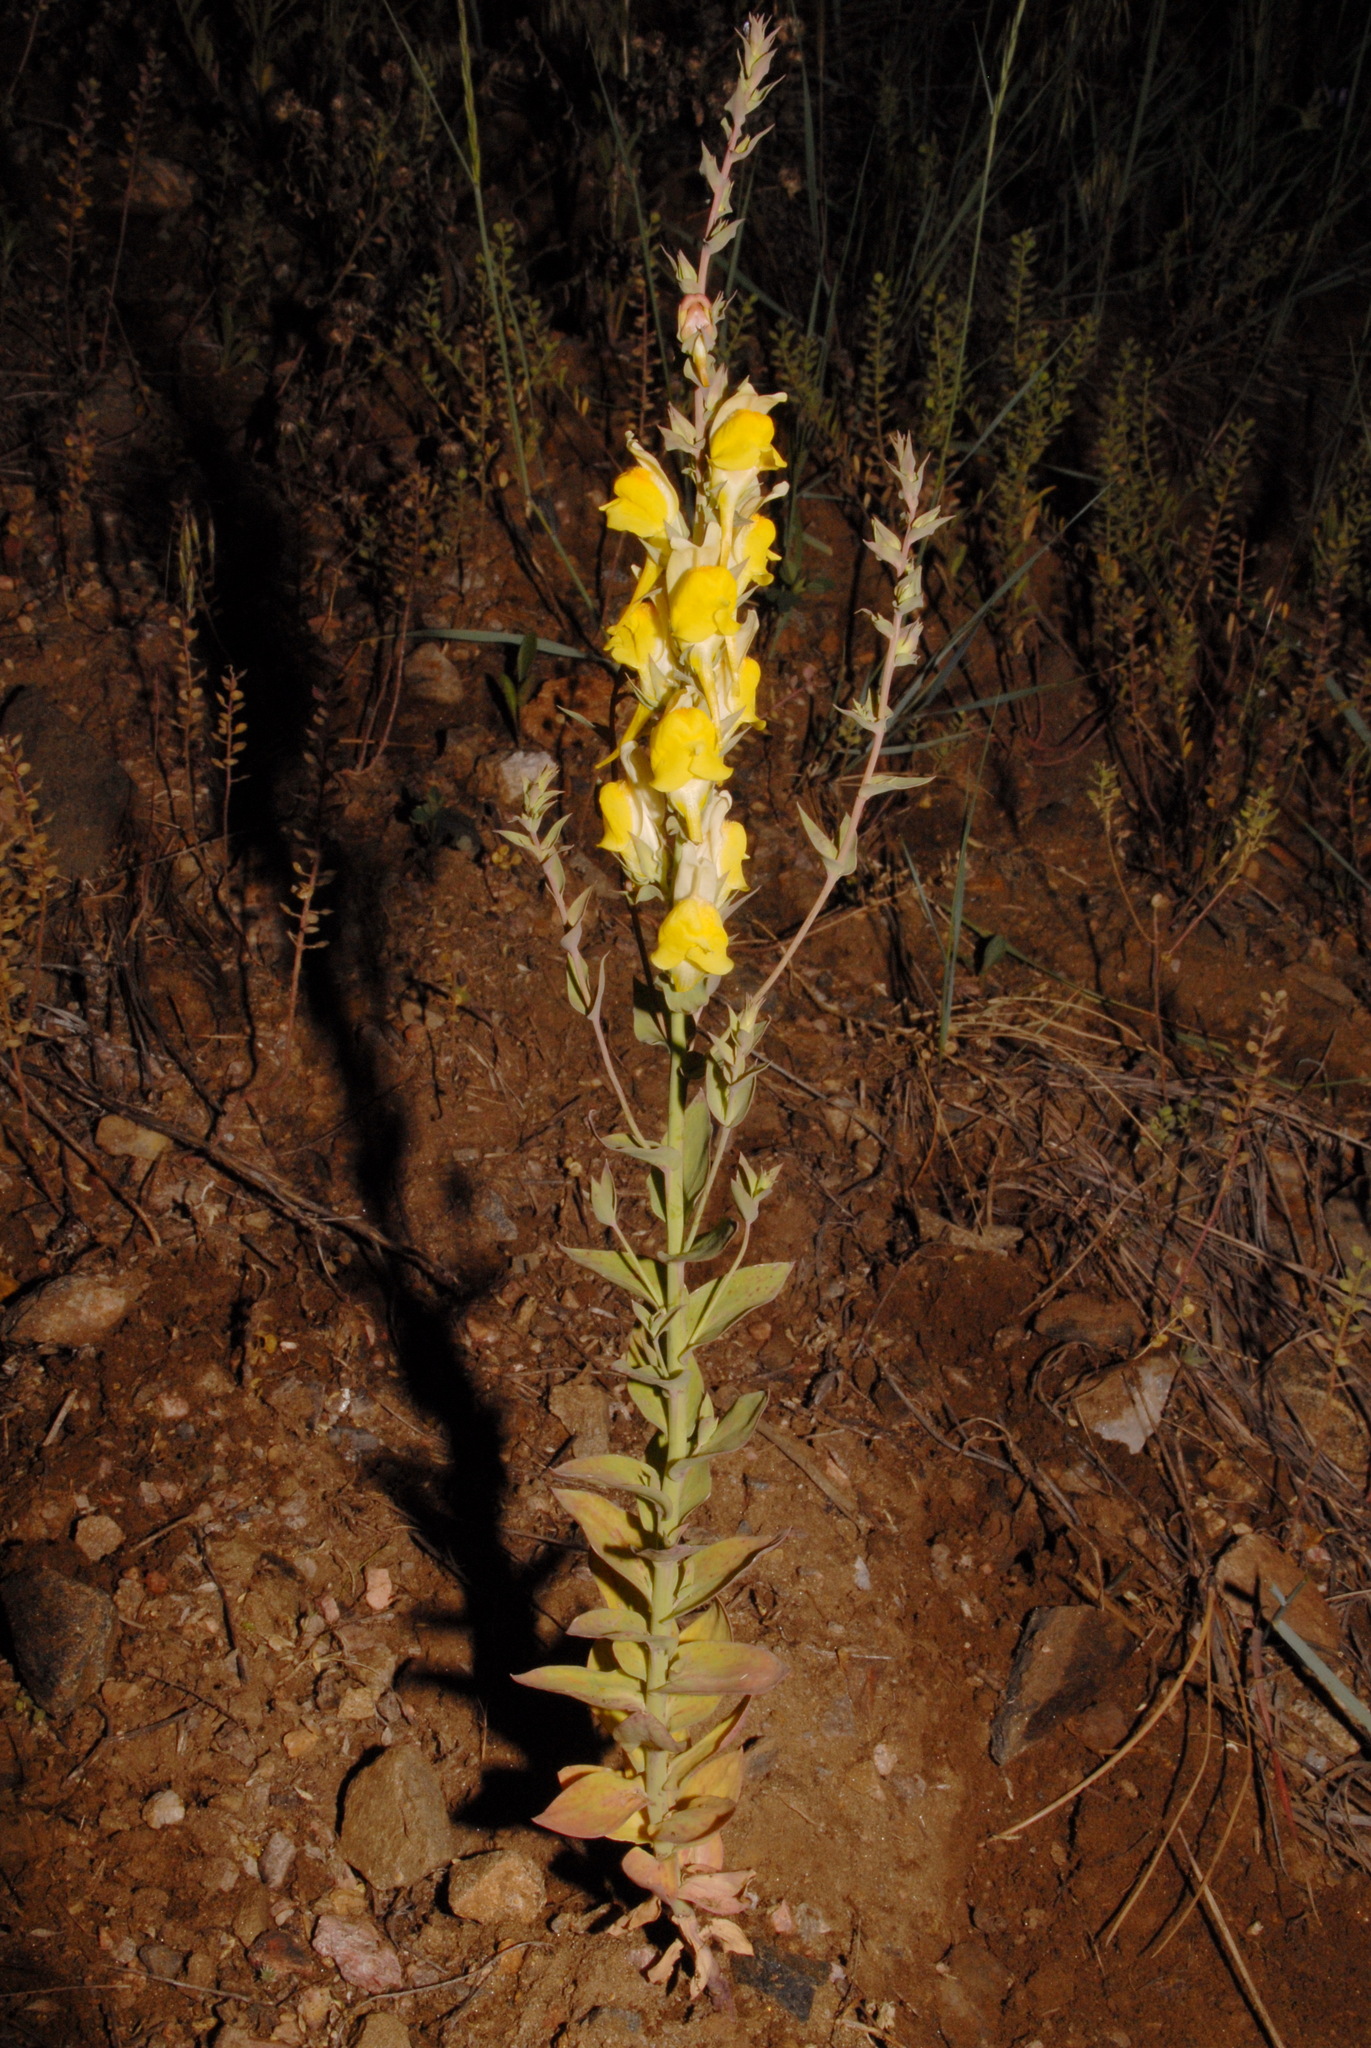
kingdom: Plantae
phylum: Tracheophyta
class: Magnoliopsida
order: Lamiales
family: Plantaginaceae
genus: Linaria
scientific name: Linaria dalmatica
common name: Dalmatian toadflax
